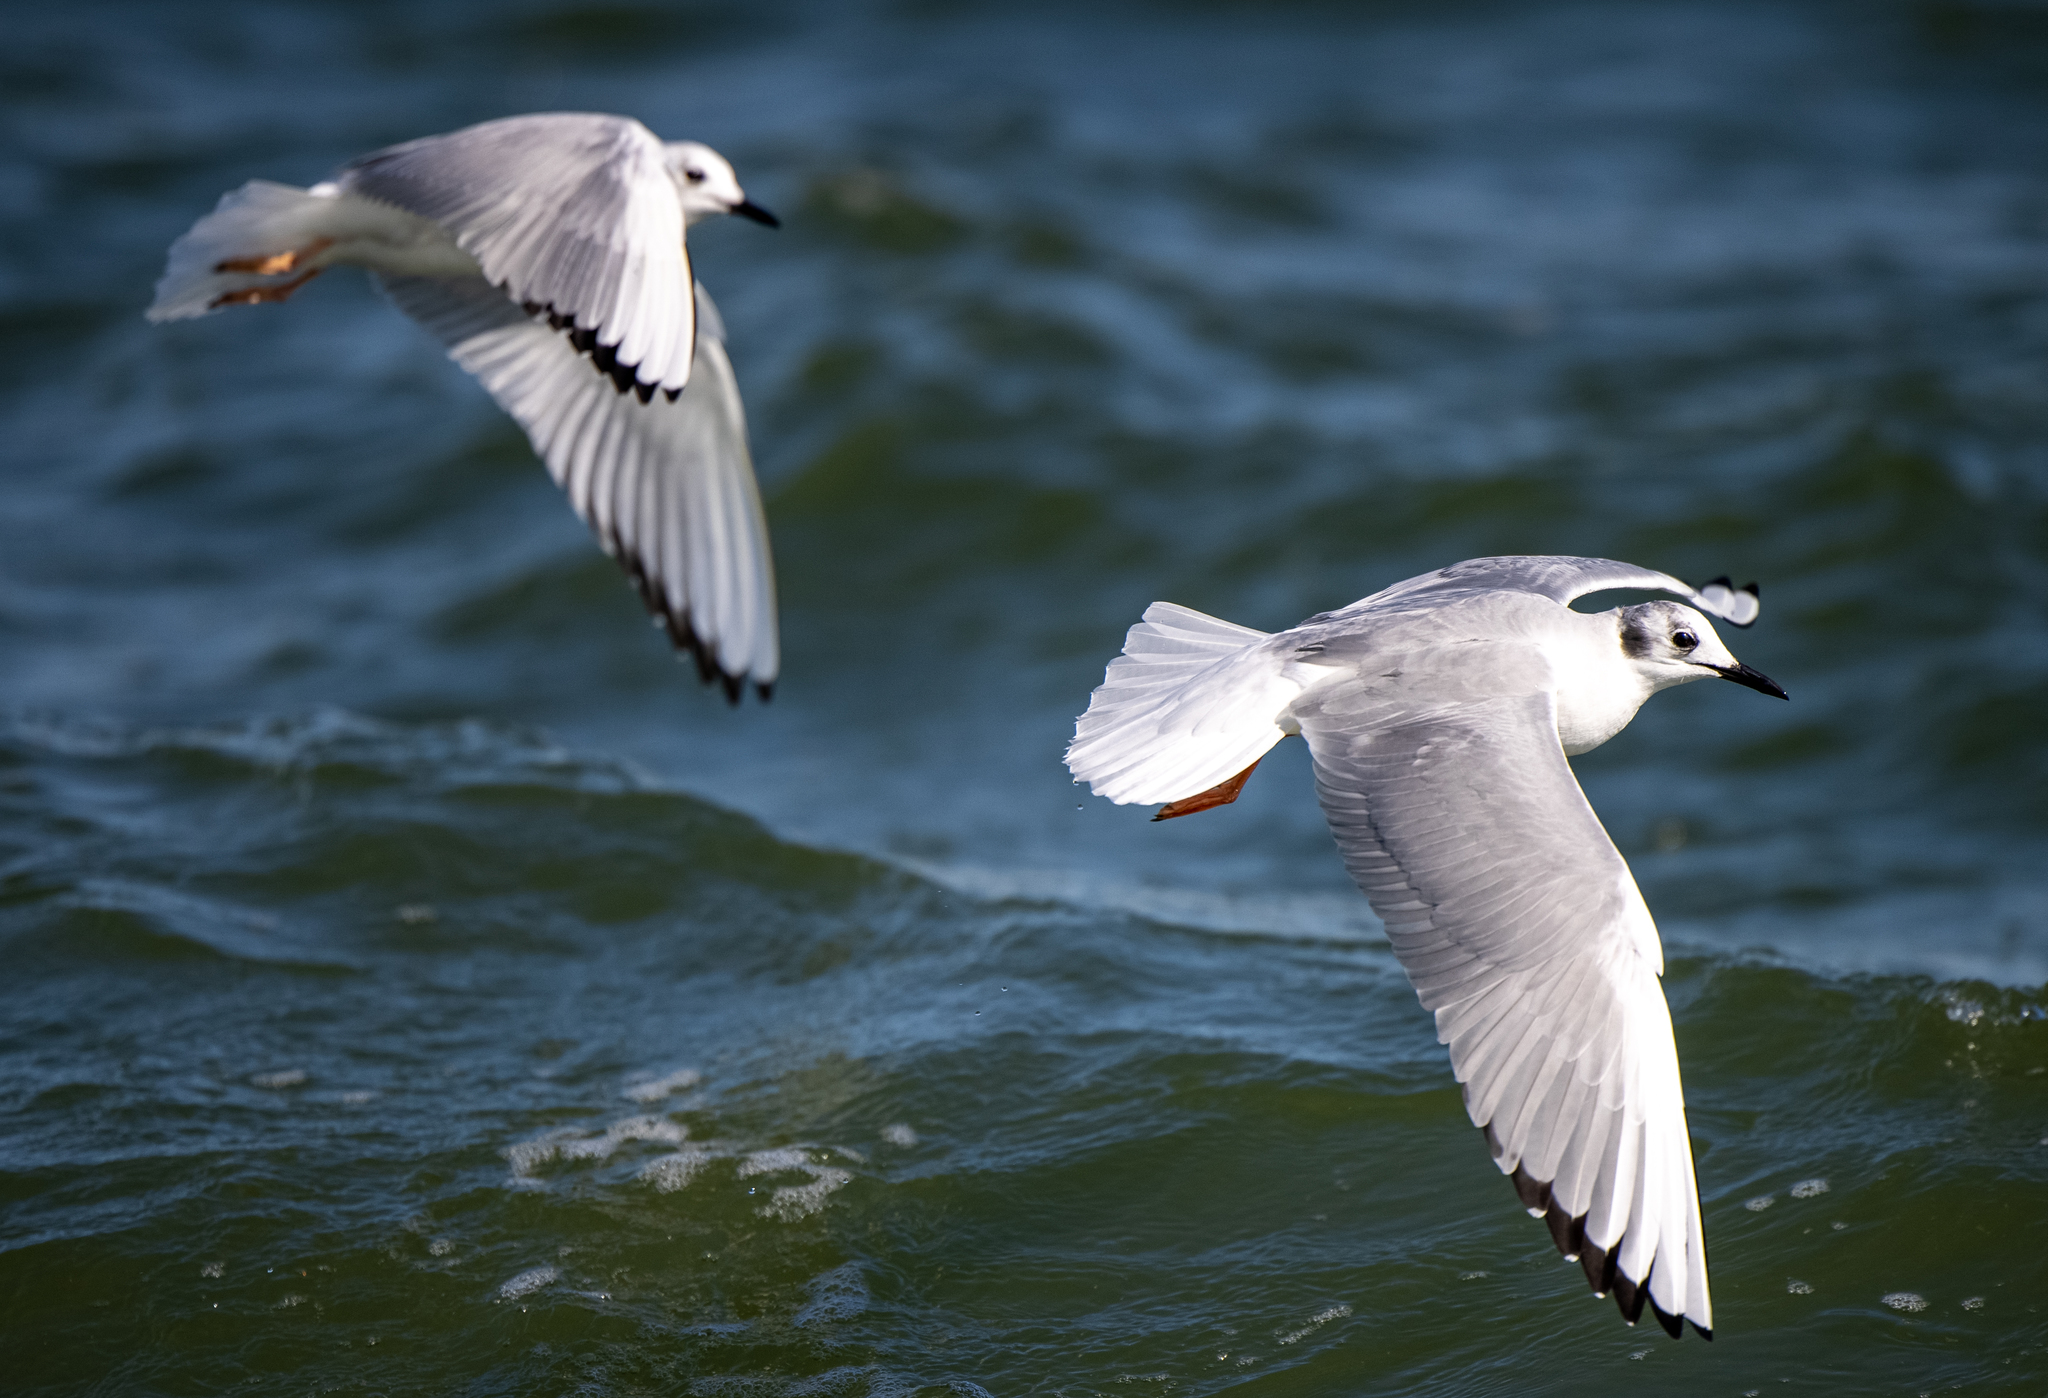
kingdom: Animalia
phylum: Chordata
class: Aves
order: Charadriiformes
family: Laridae
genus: Chroicocephalus
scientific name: Chroicocephalus philadelphia
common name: Bonaparte's gull
